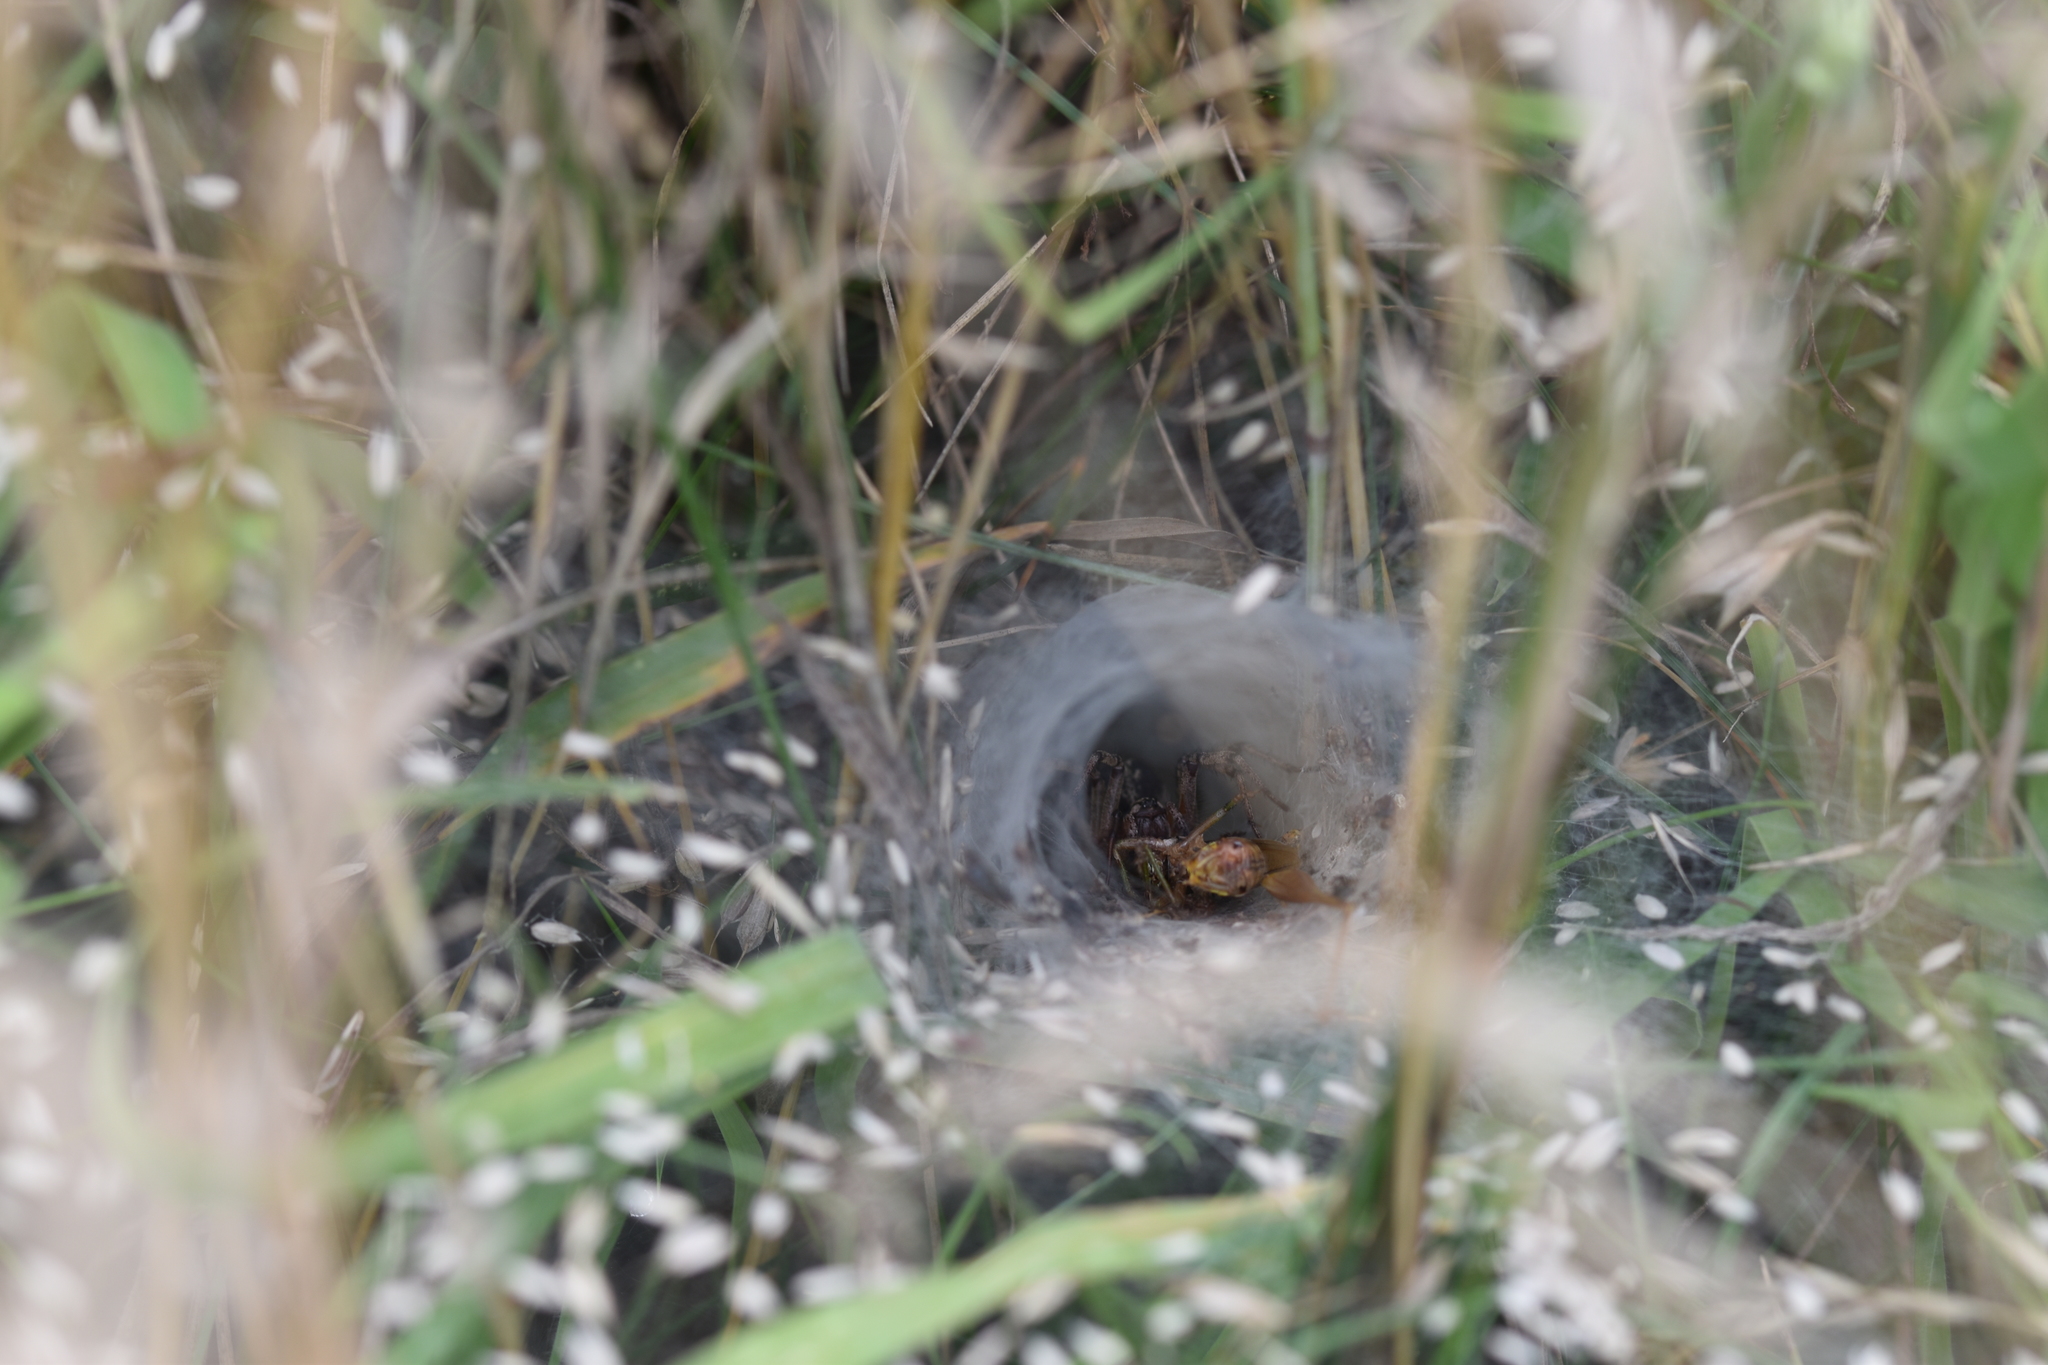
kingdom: Animalia
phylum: Arthropoda
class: Arachnida
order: Araneae
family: Agelenidae
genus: Agelena
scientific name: Agelena labyrinthica
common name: Labyrinth spider
